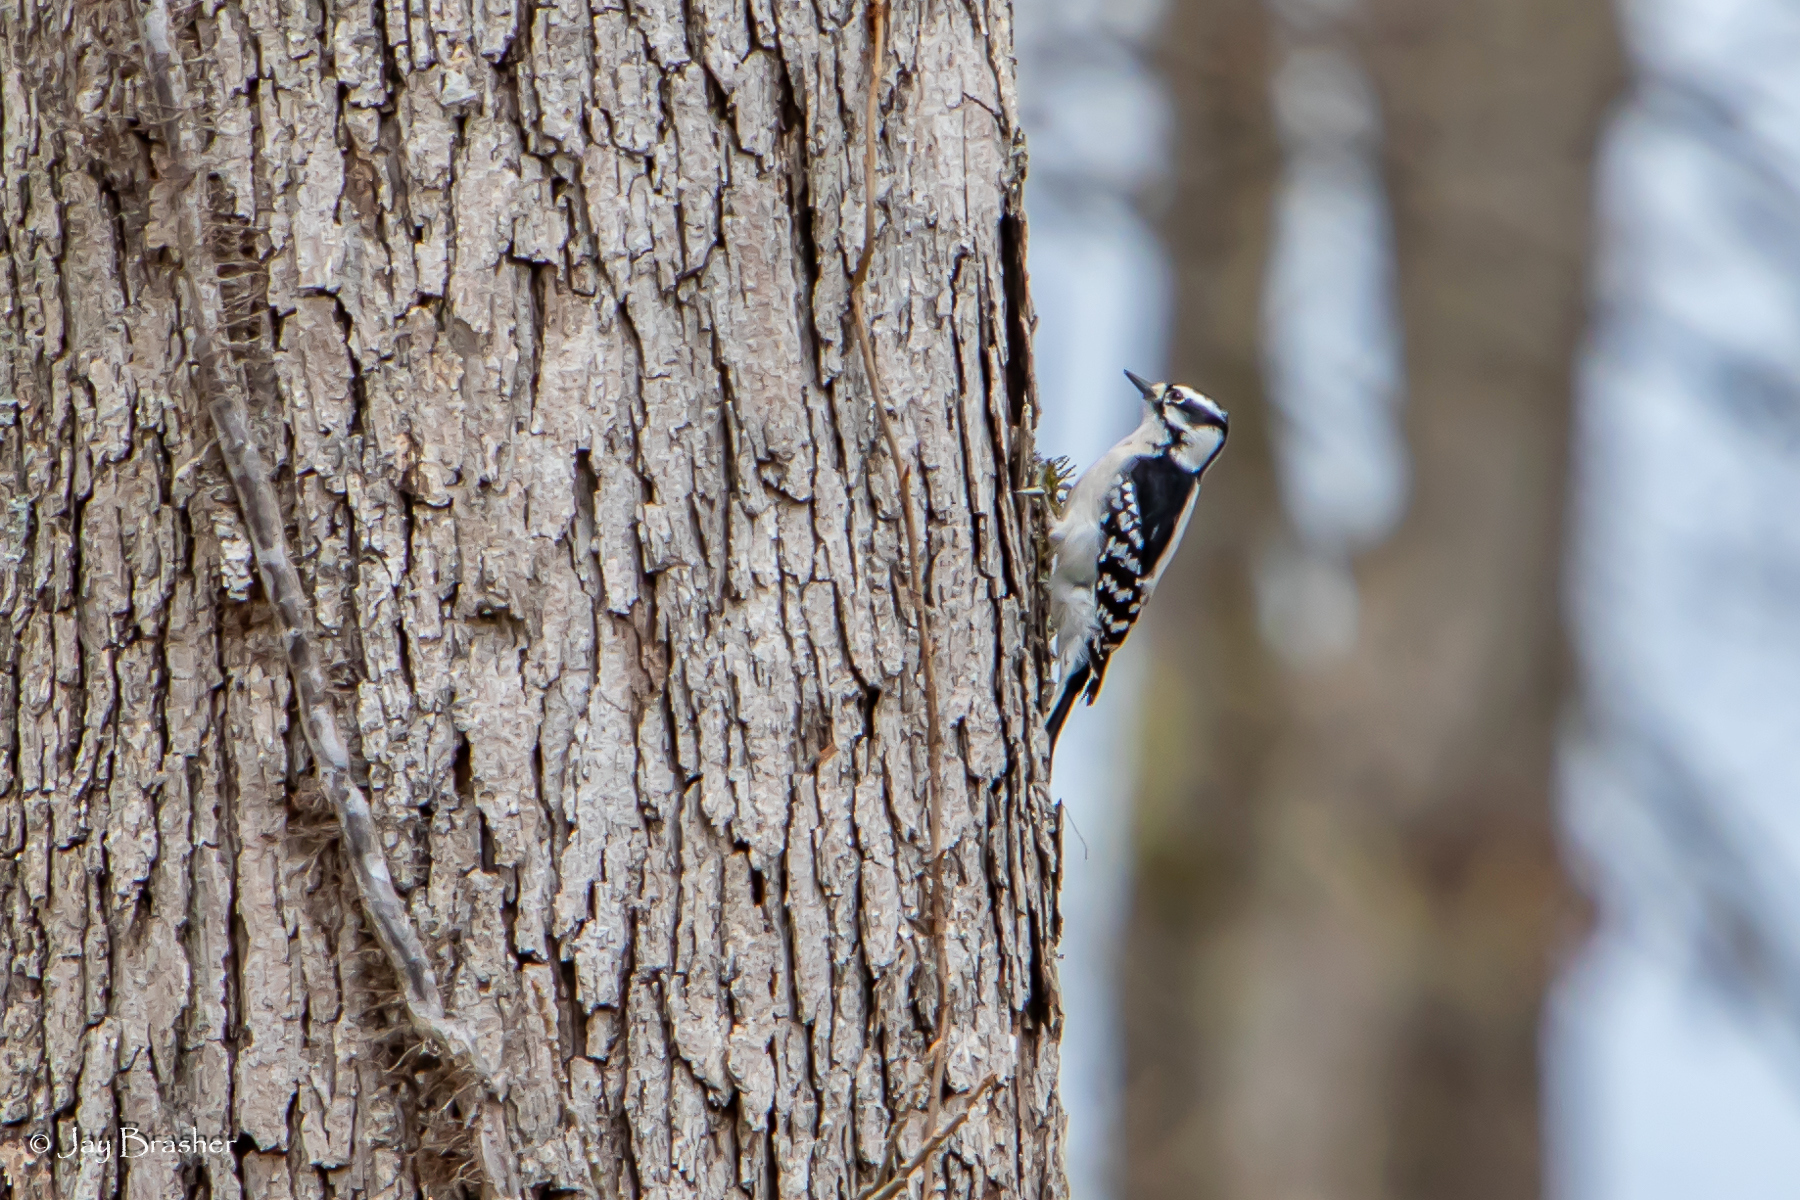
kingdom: Animalia
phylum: Chordata
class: Aves
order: Piciformes
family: Picidae
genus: Dryobates
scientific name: Dryobates pubescens
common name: Downy woodpecker
